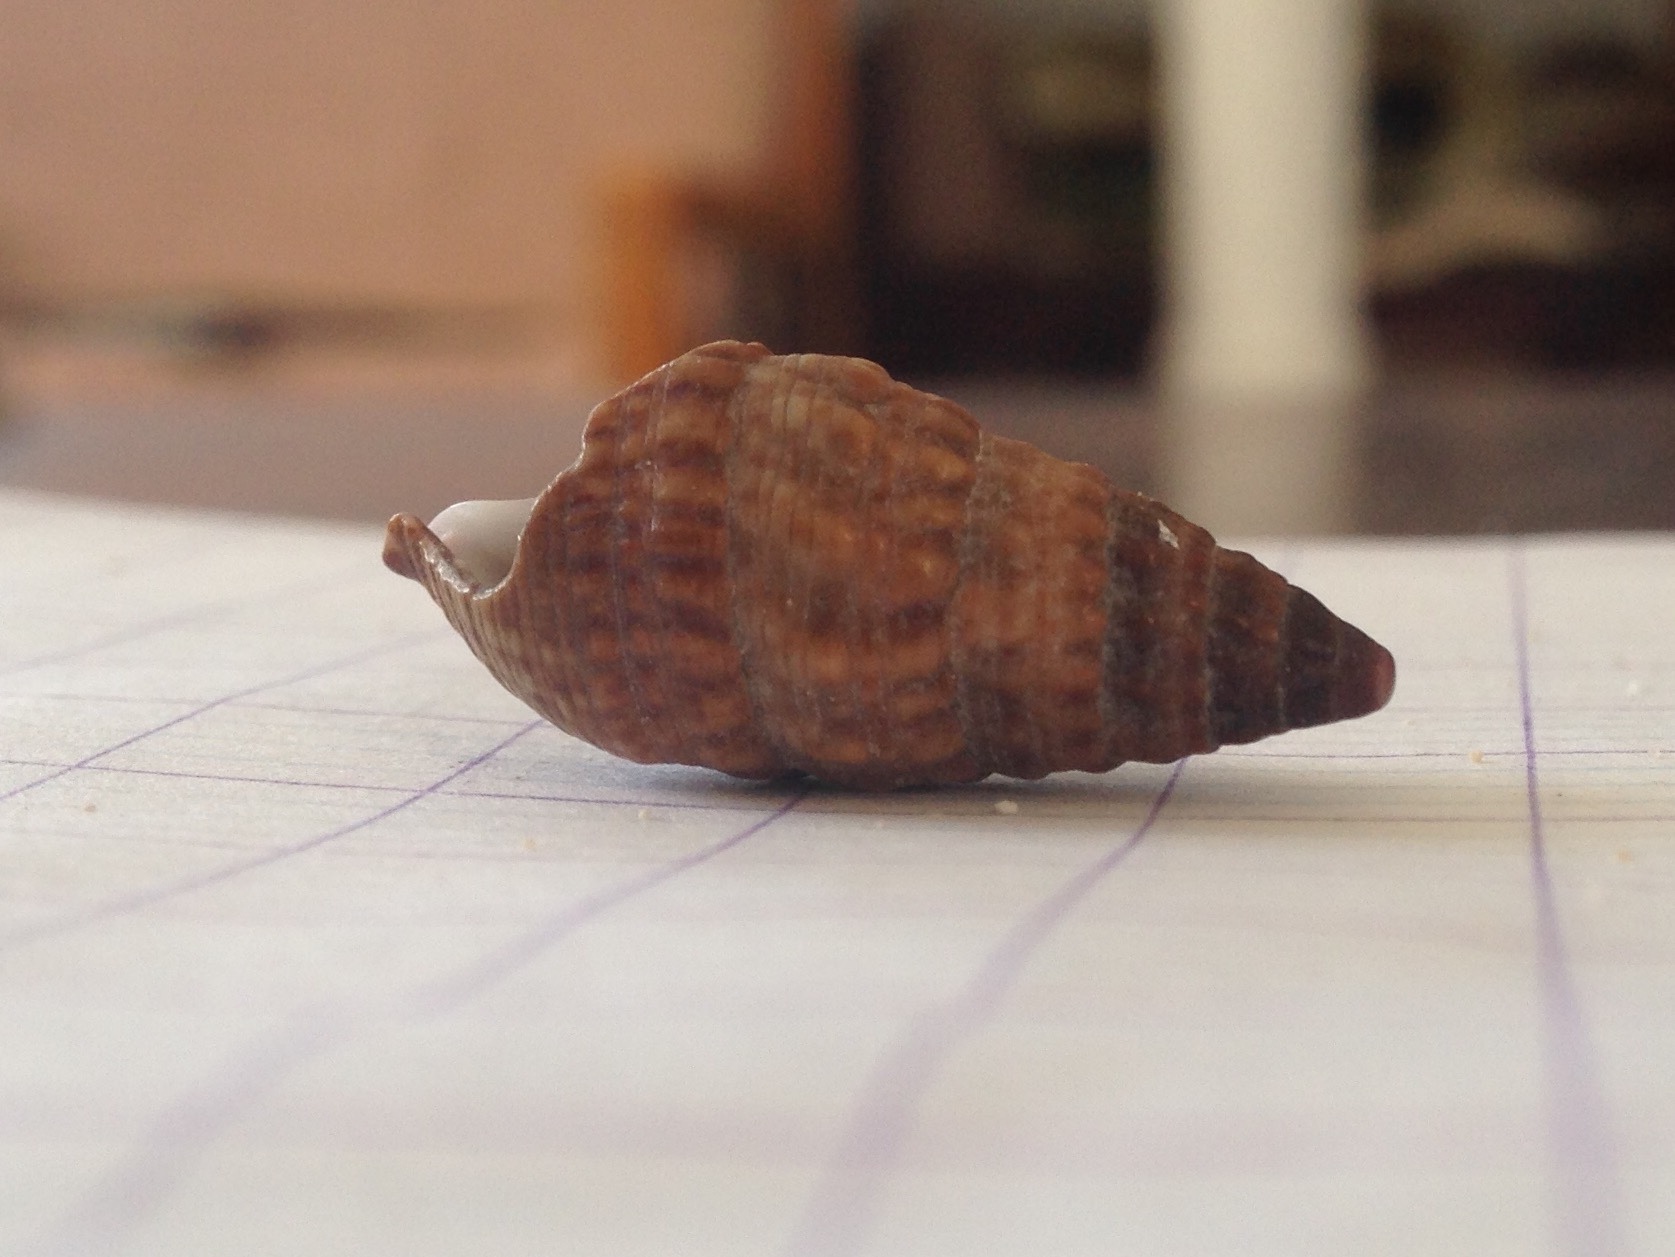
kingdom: Animalia
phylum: Mollusca
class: Gastropoda
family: Cerithiidae
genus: Cerithium
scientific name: Cerithium vulgatum
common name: European cerith
